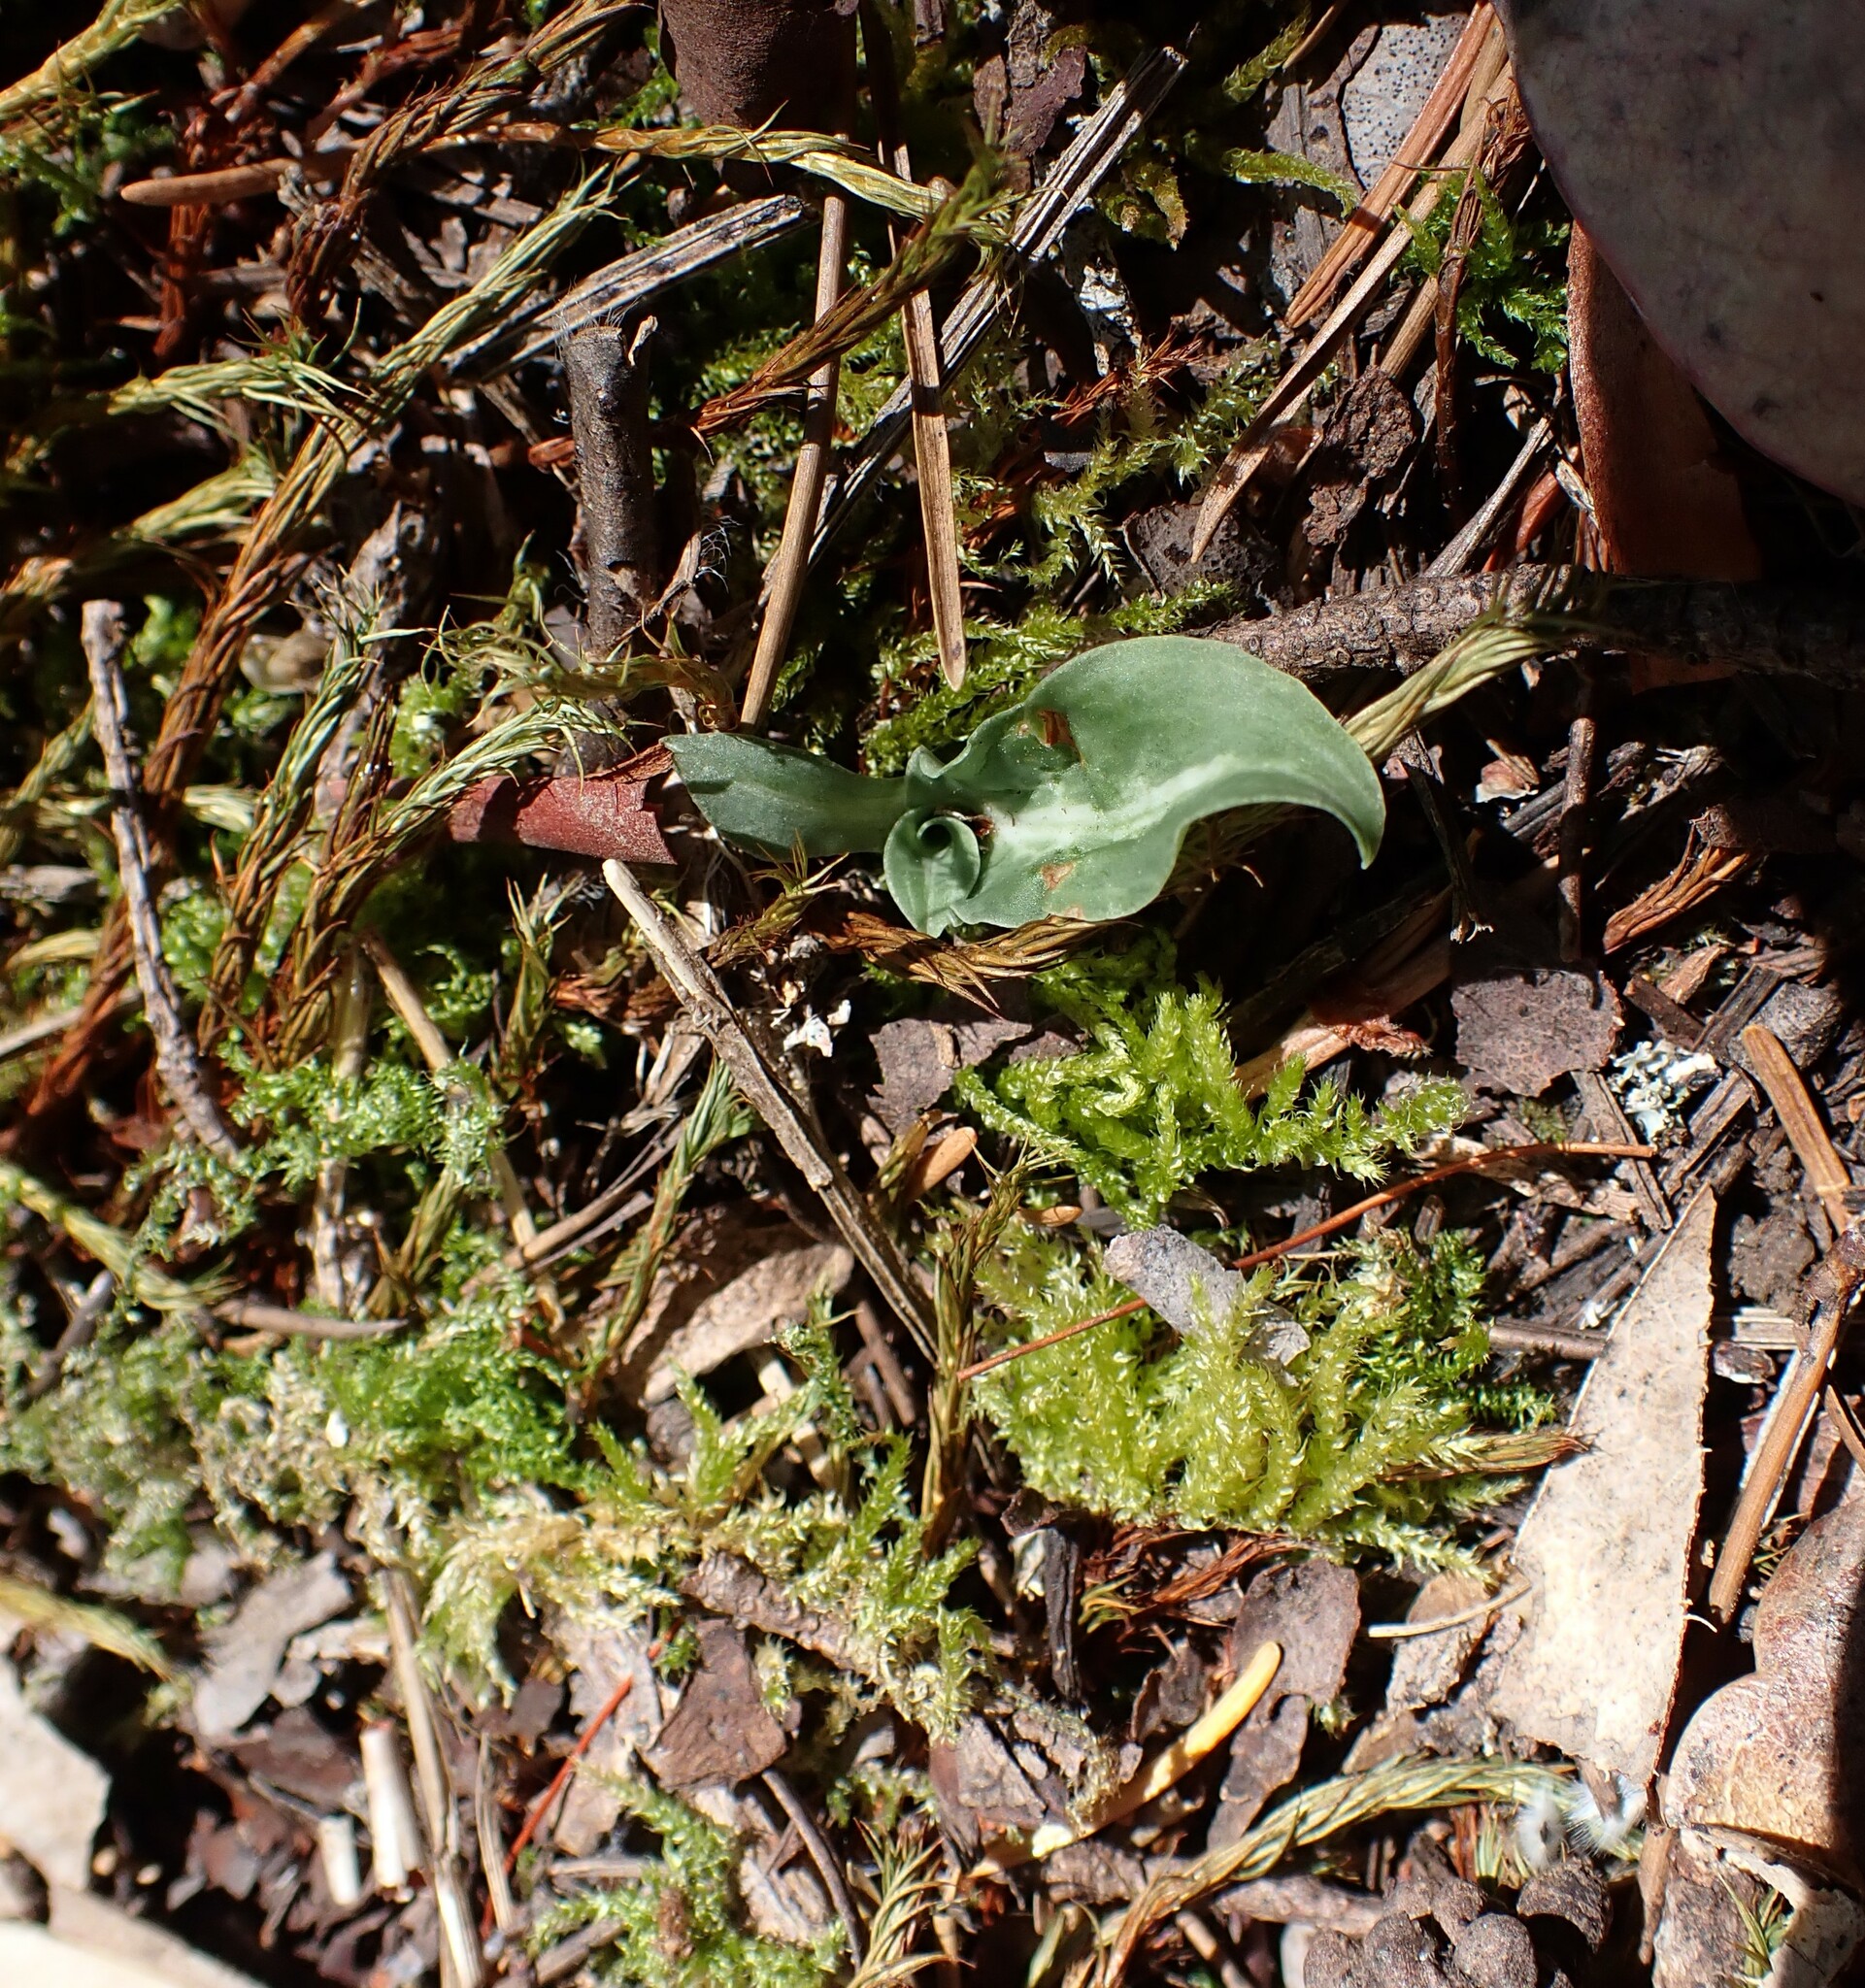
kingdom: Plantae
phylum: Tracheophyta
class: Liliopsida
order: Asparagales
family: Orchidaceae
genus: Goodyera
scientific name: Goodyera oblongifolia
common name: Giant rattlesnake-plantain
